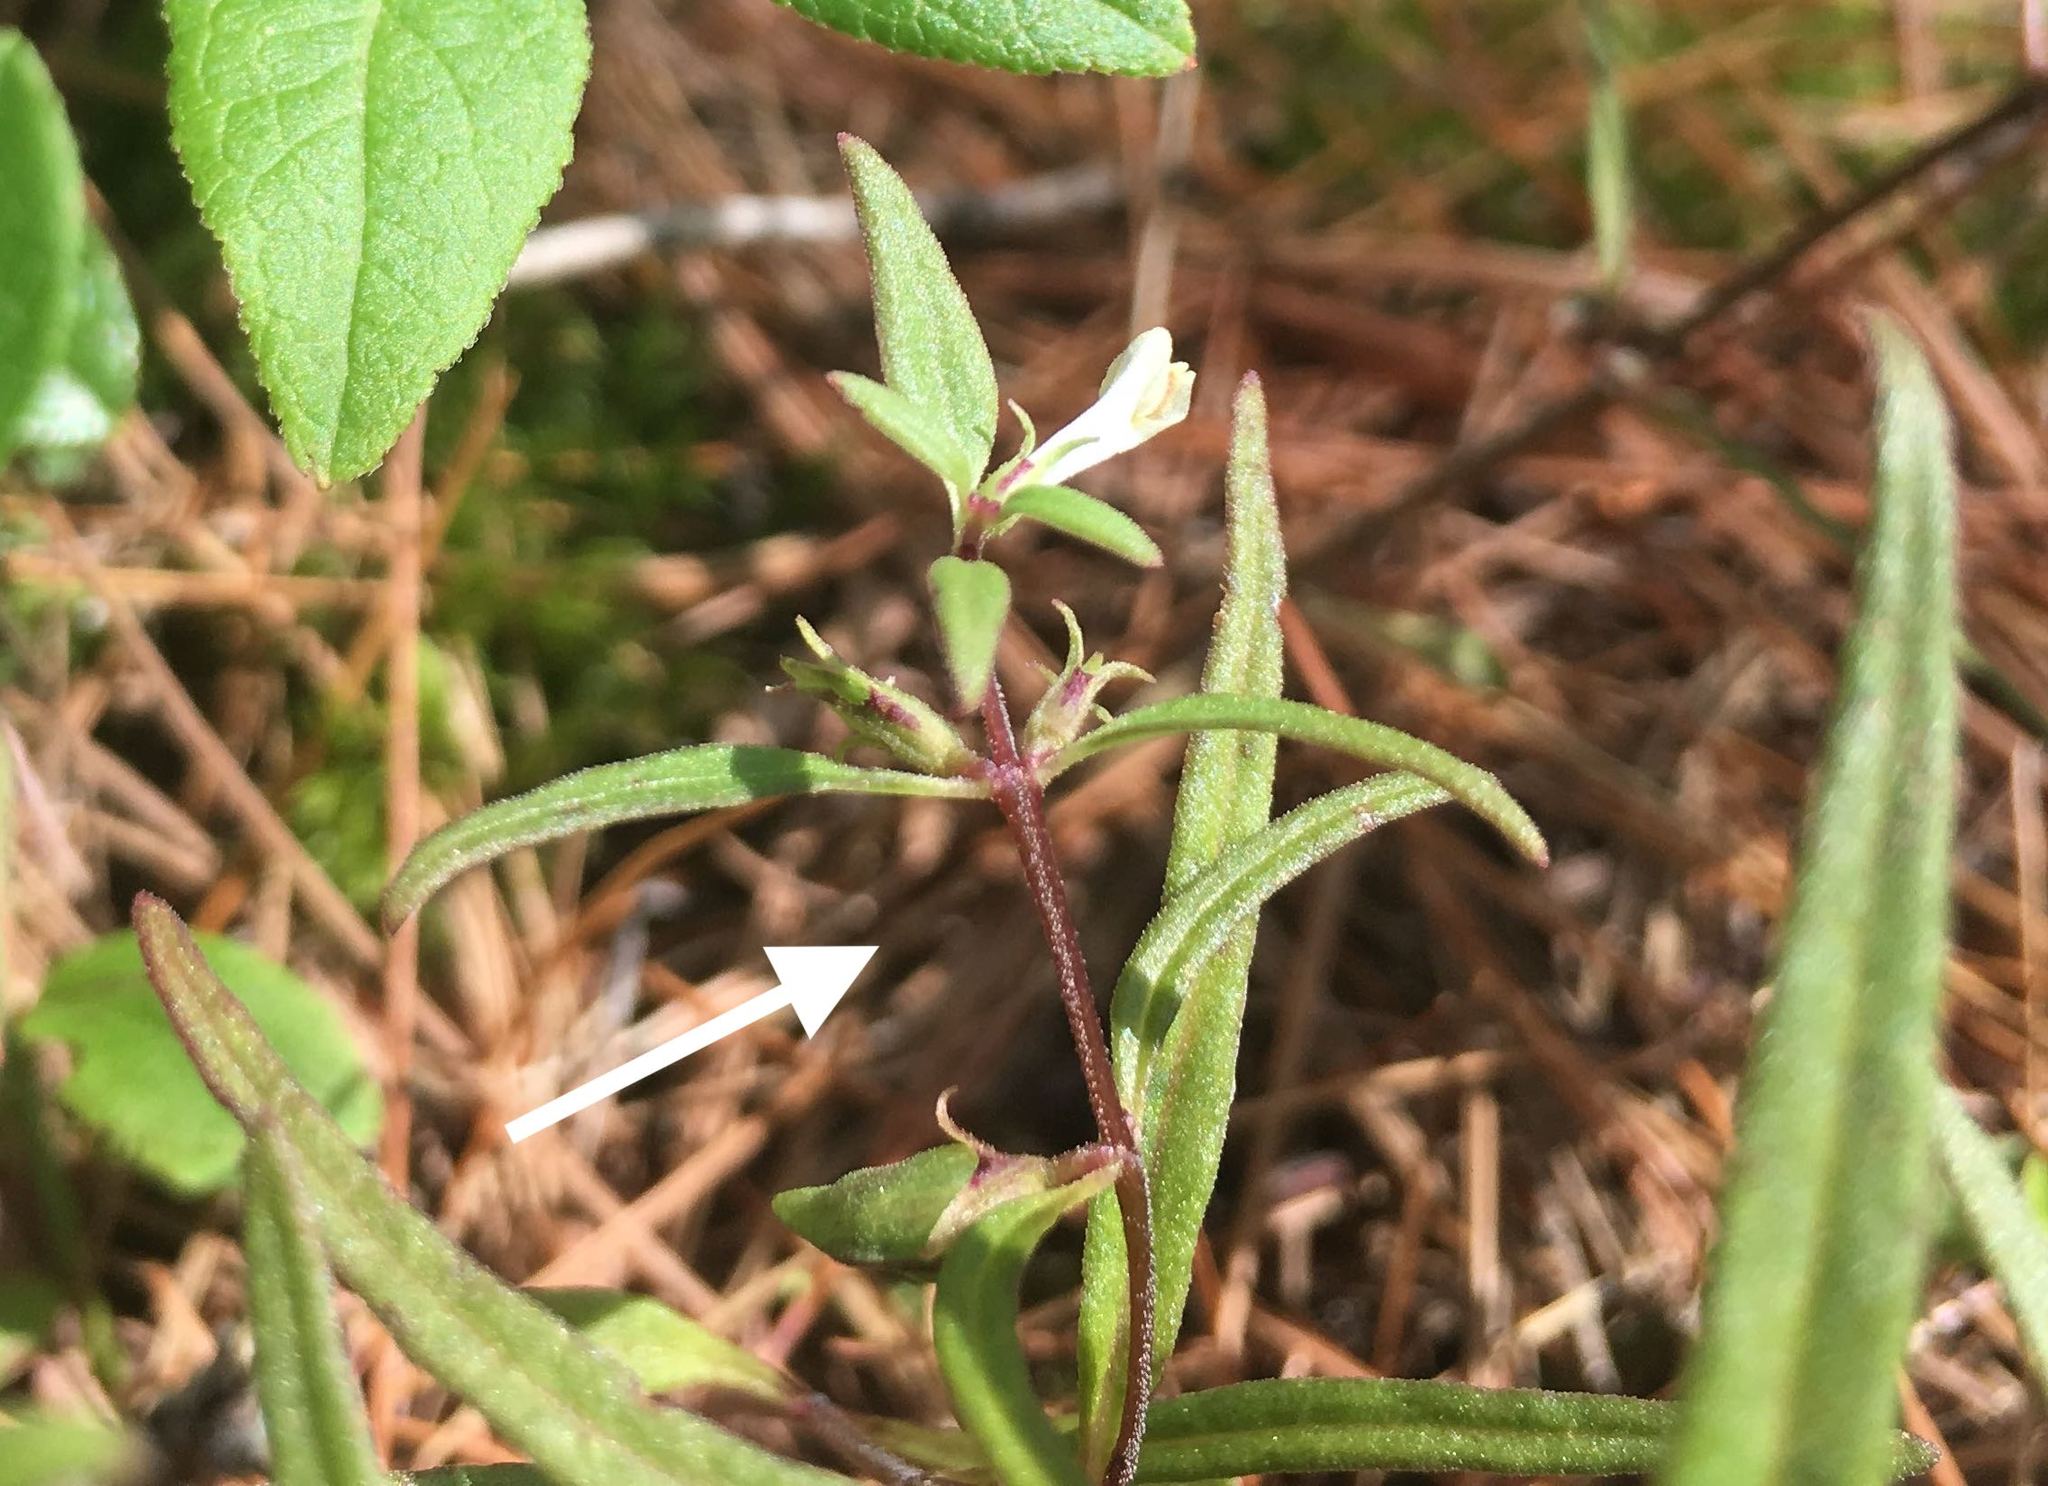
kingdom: Plantae
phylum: Tracheophyta
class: Magnoliopsida
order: Lamiales
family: Orobanchaceae
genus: Melampyrum
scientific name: Melampyrum lineare
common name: American cow-wheat
